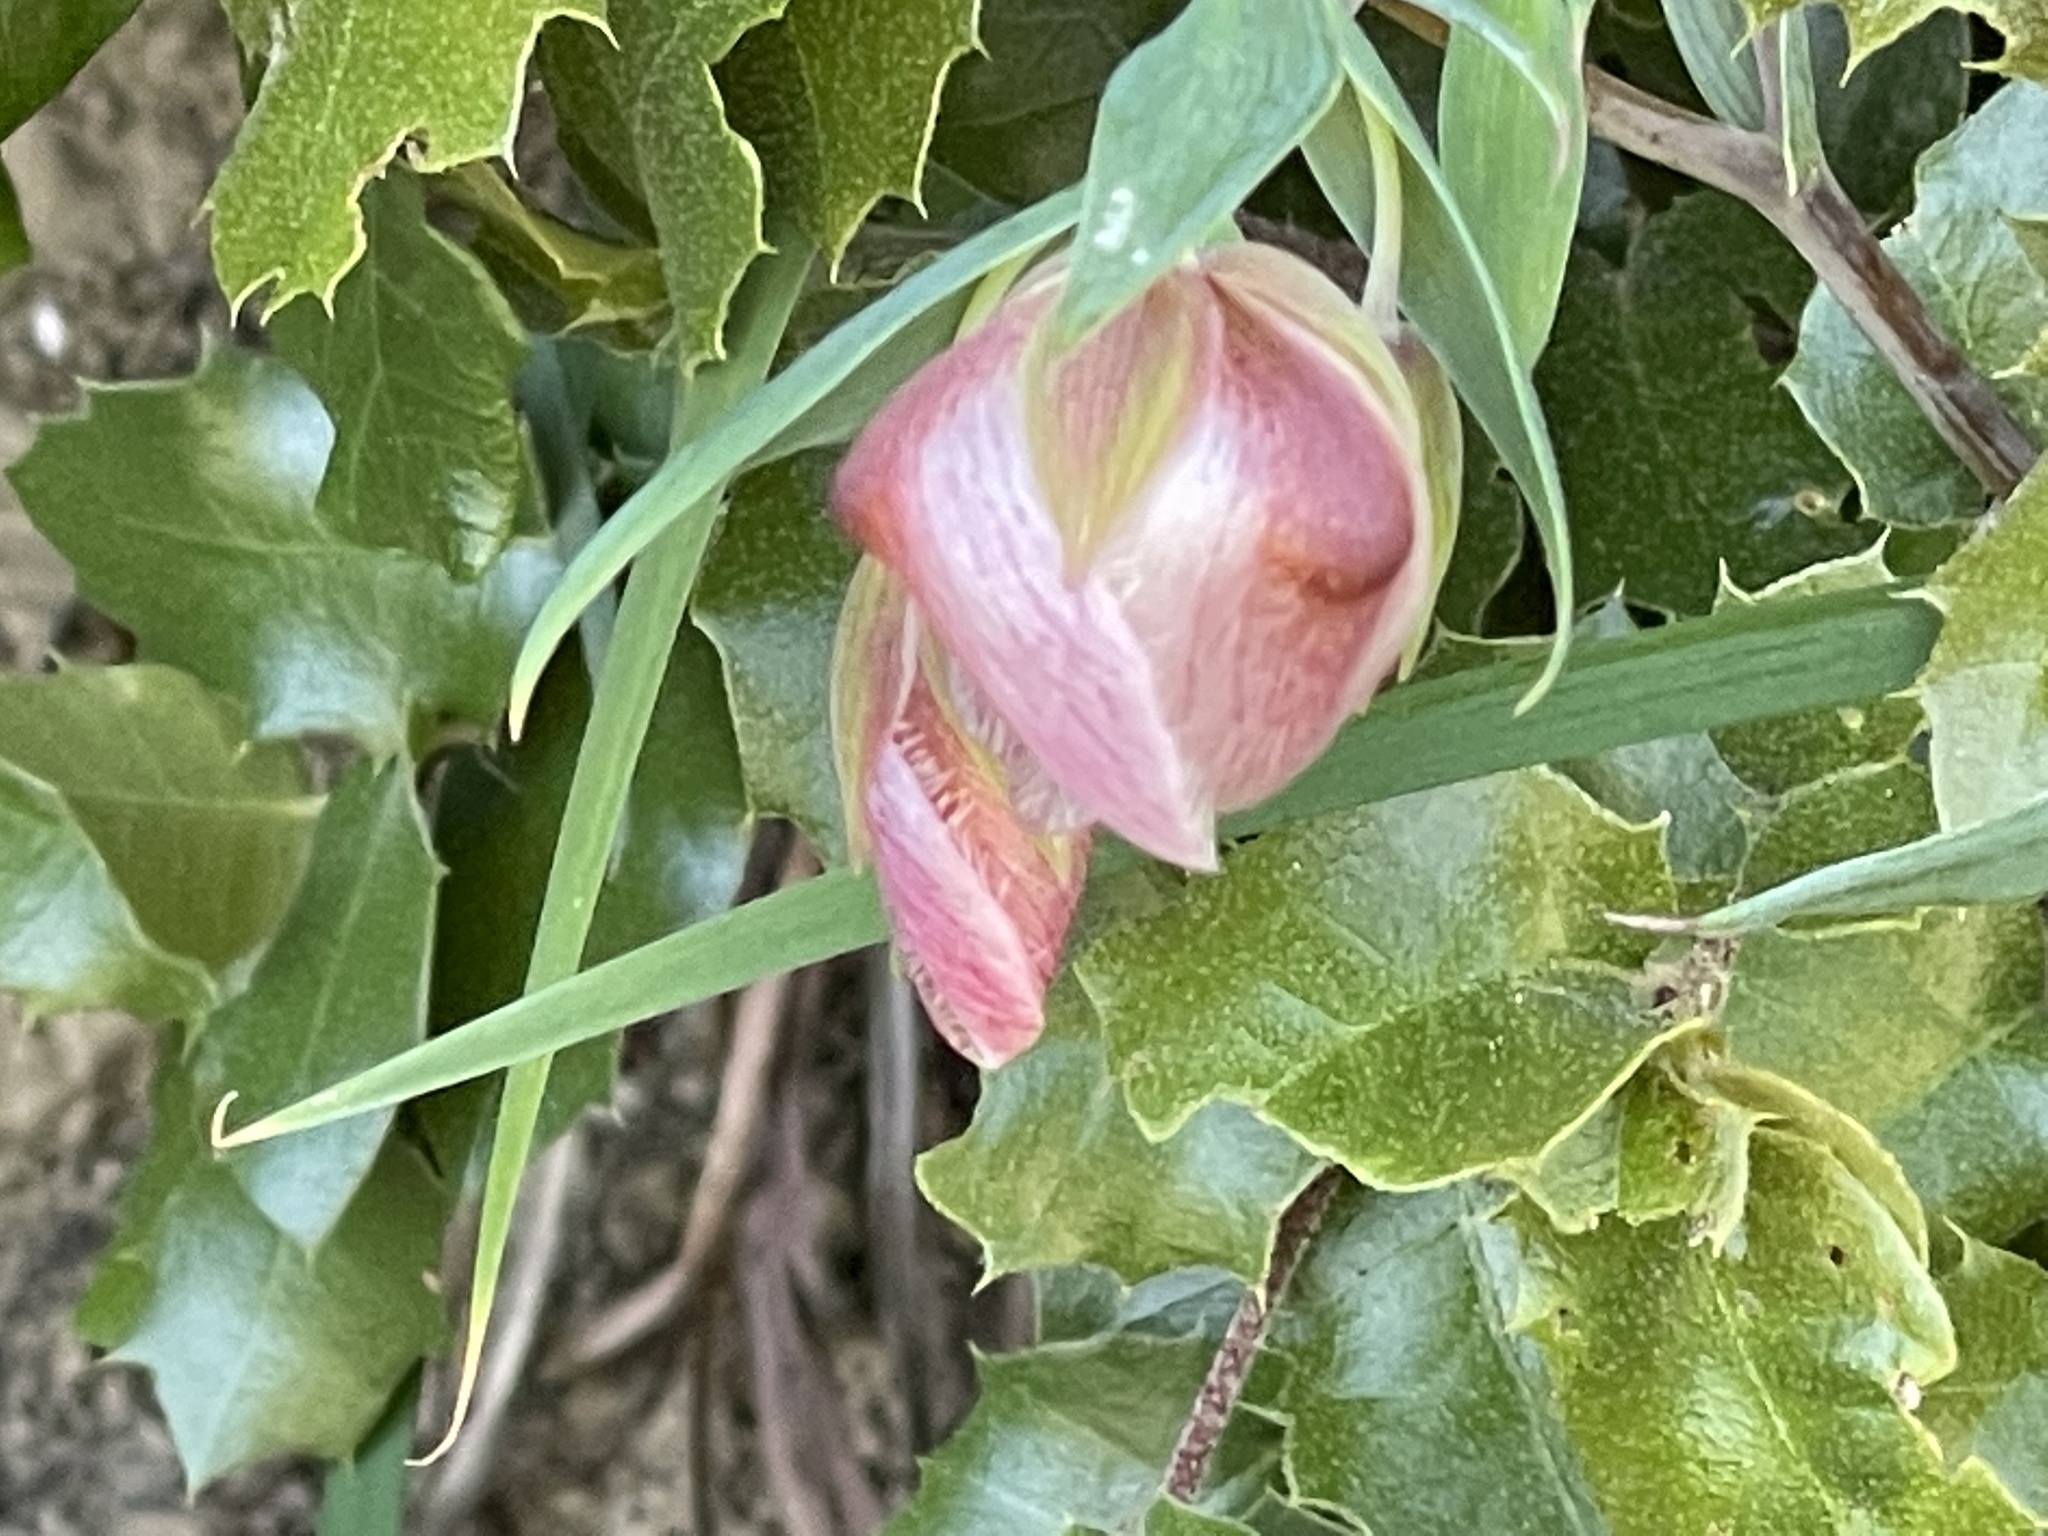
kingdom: Plantae
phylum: Tracheophyta
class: Liliopsida
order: Liliales
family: Liliaceae
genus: Calochortus
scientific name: Calochortus albus
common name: Fairy-lantern
